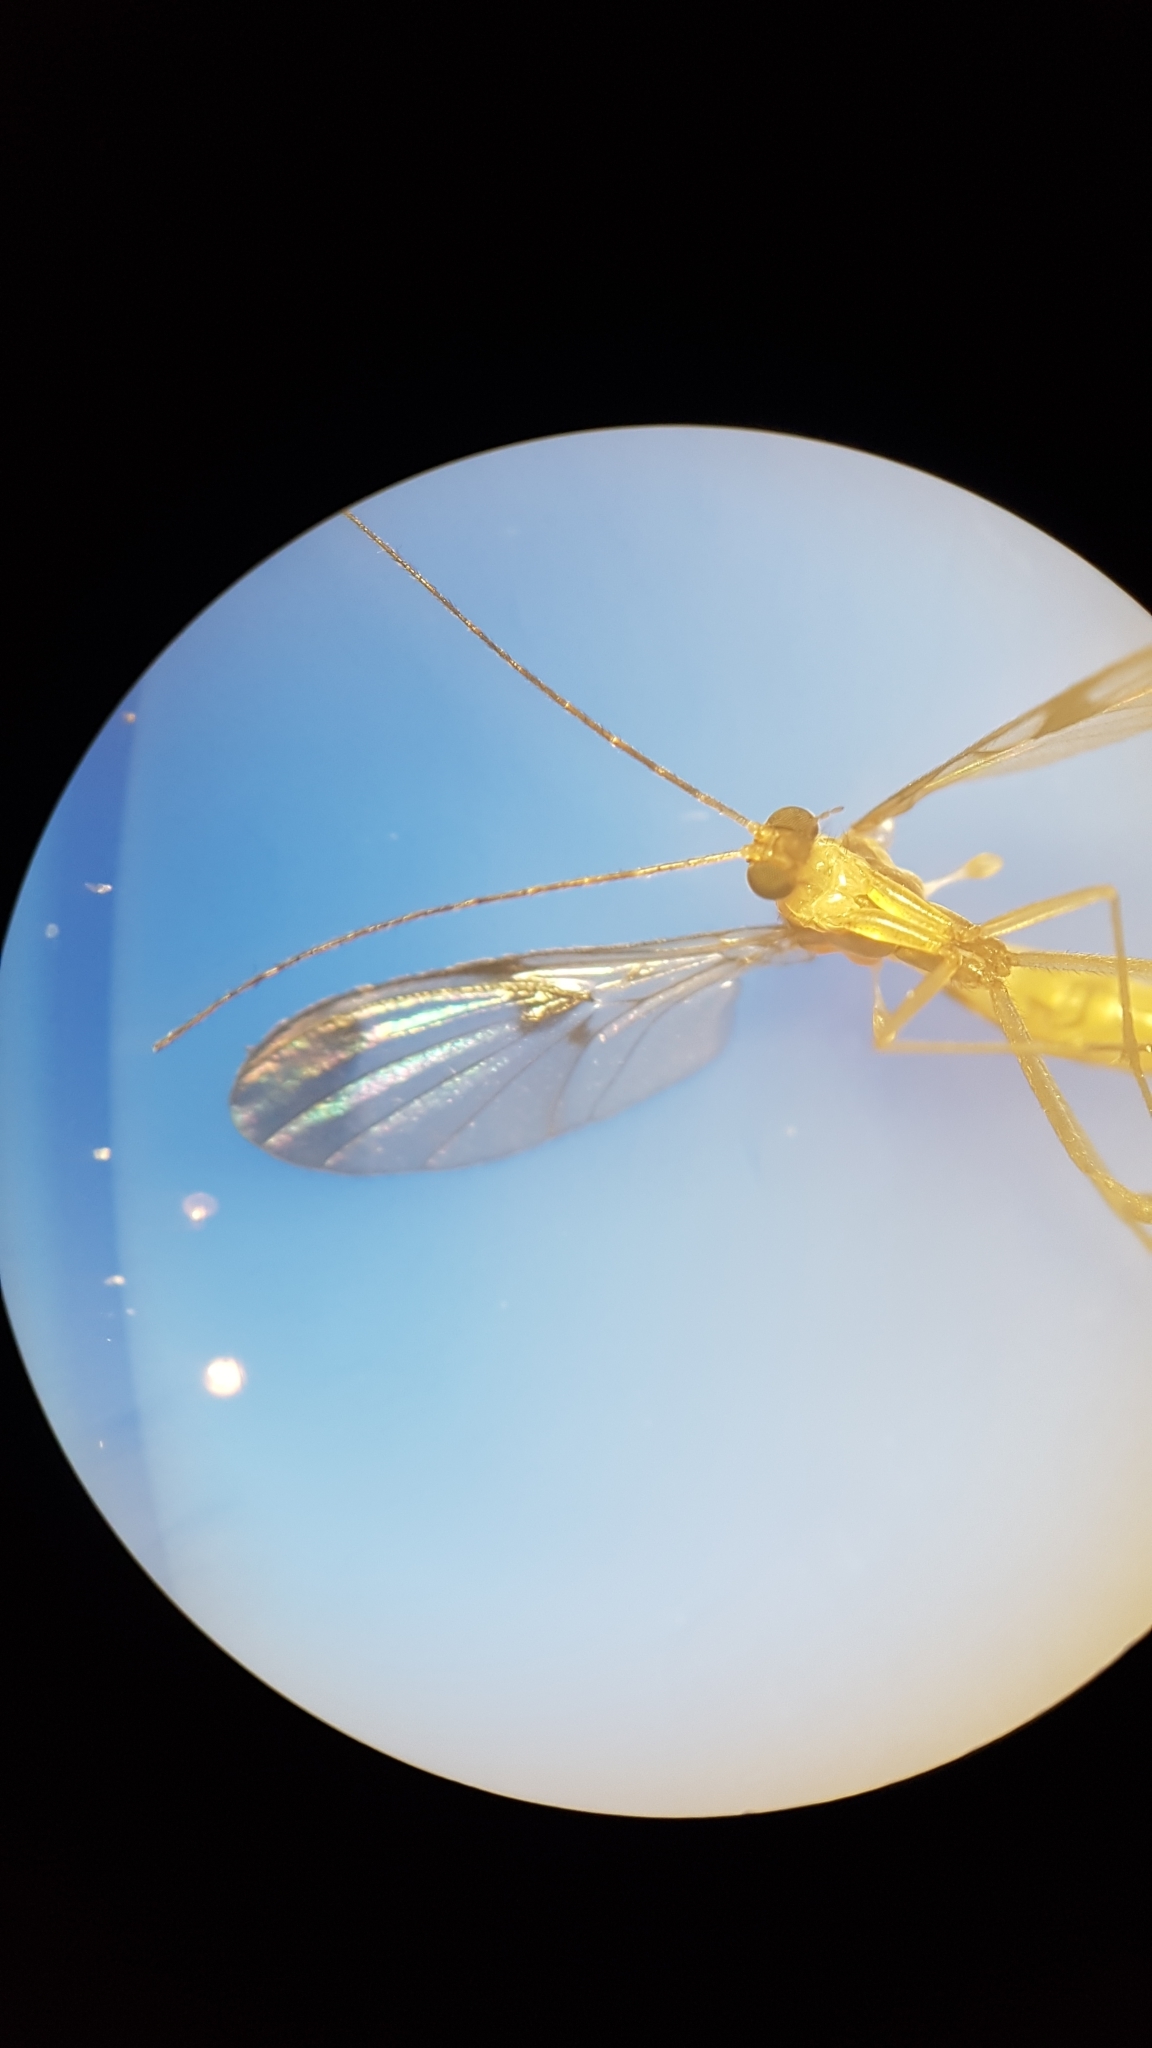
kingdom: Animalia
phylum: Arthropoda
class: Insecta
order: Diptera
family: Keroplatidae
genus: Macrocera
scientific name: Macrocera scoparia
